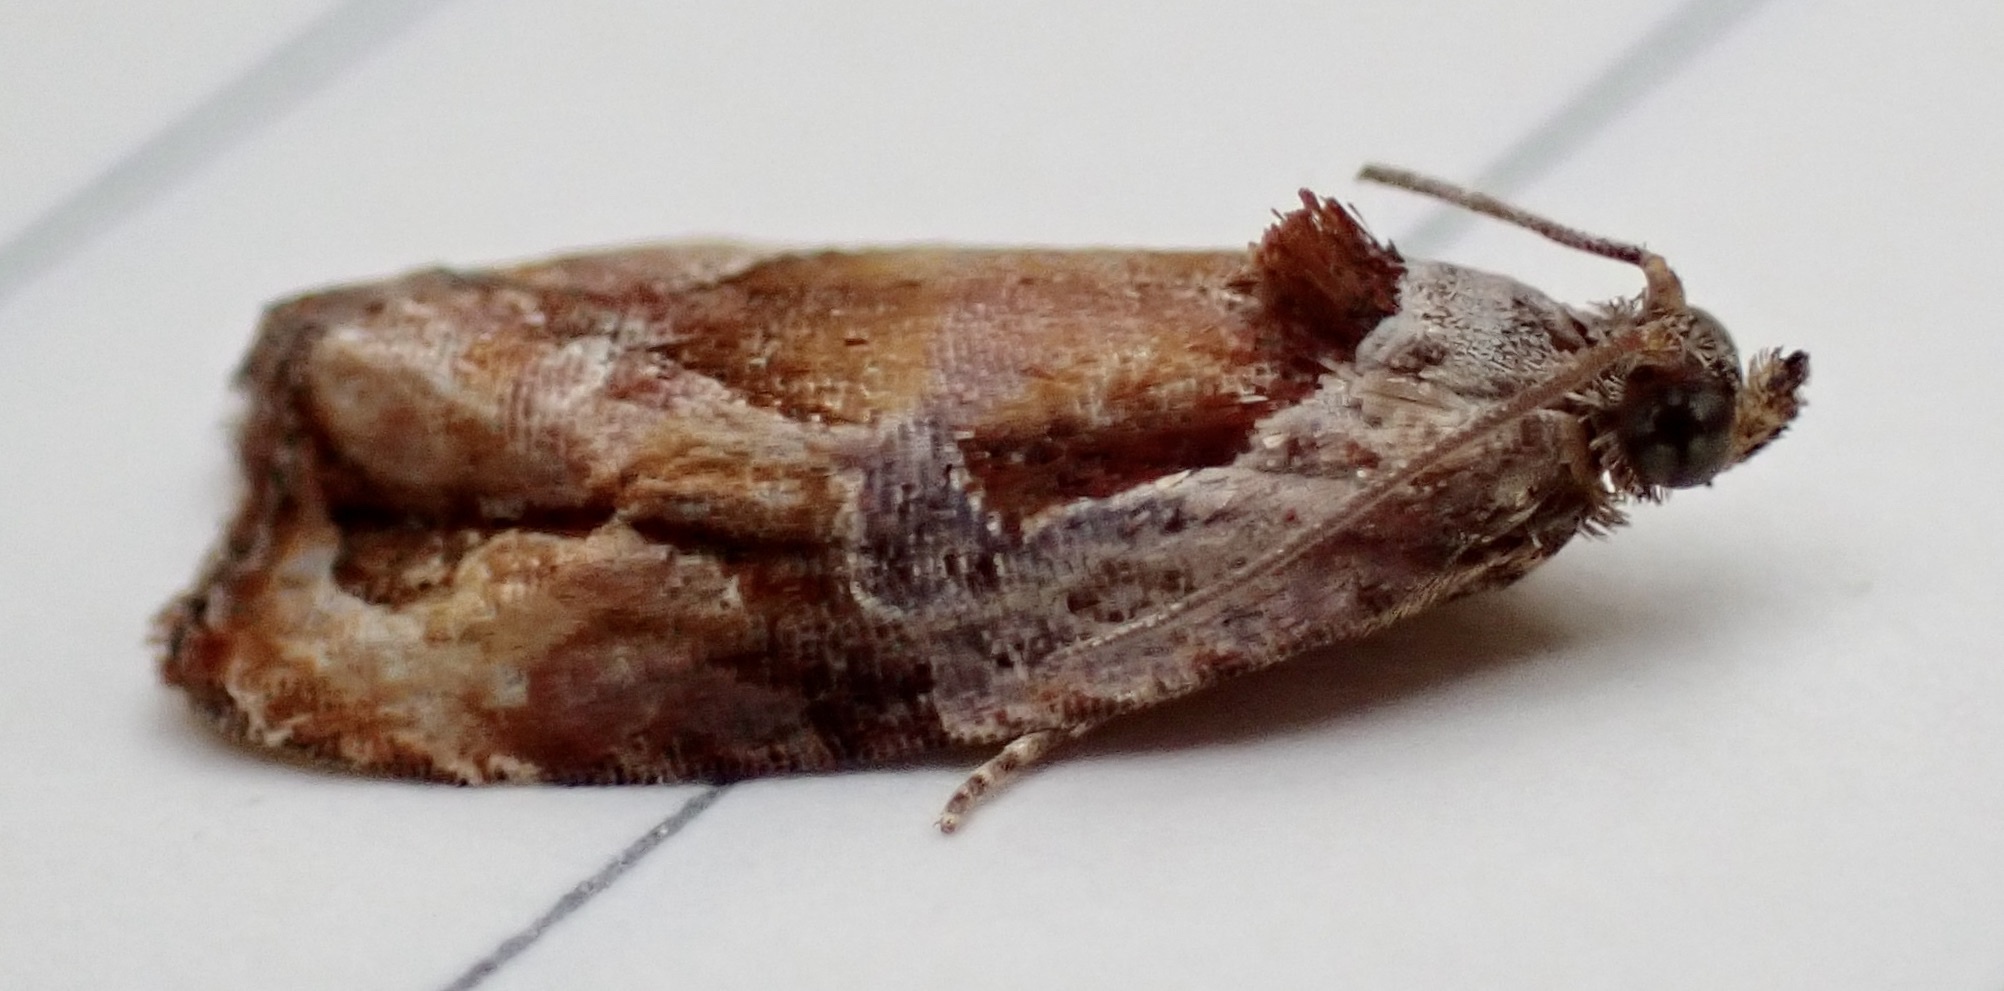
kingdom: Animalia
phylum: Arthropoda
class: Insecta
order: Lepidoptera
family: Tortricidae
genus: Zomaria
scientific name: Zomaria interruptolineana
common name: Broken-lined zomaria moth
